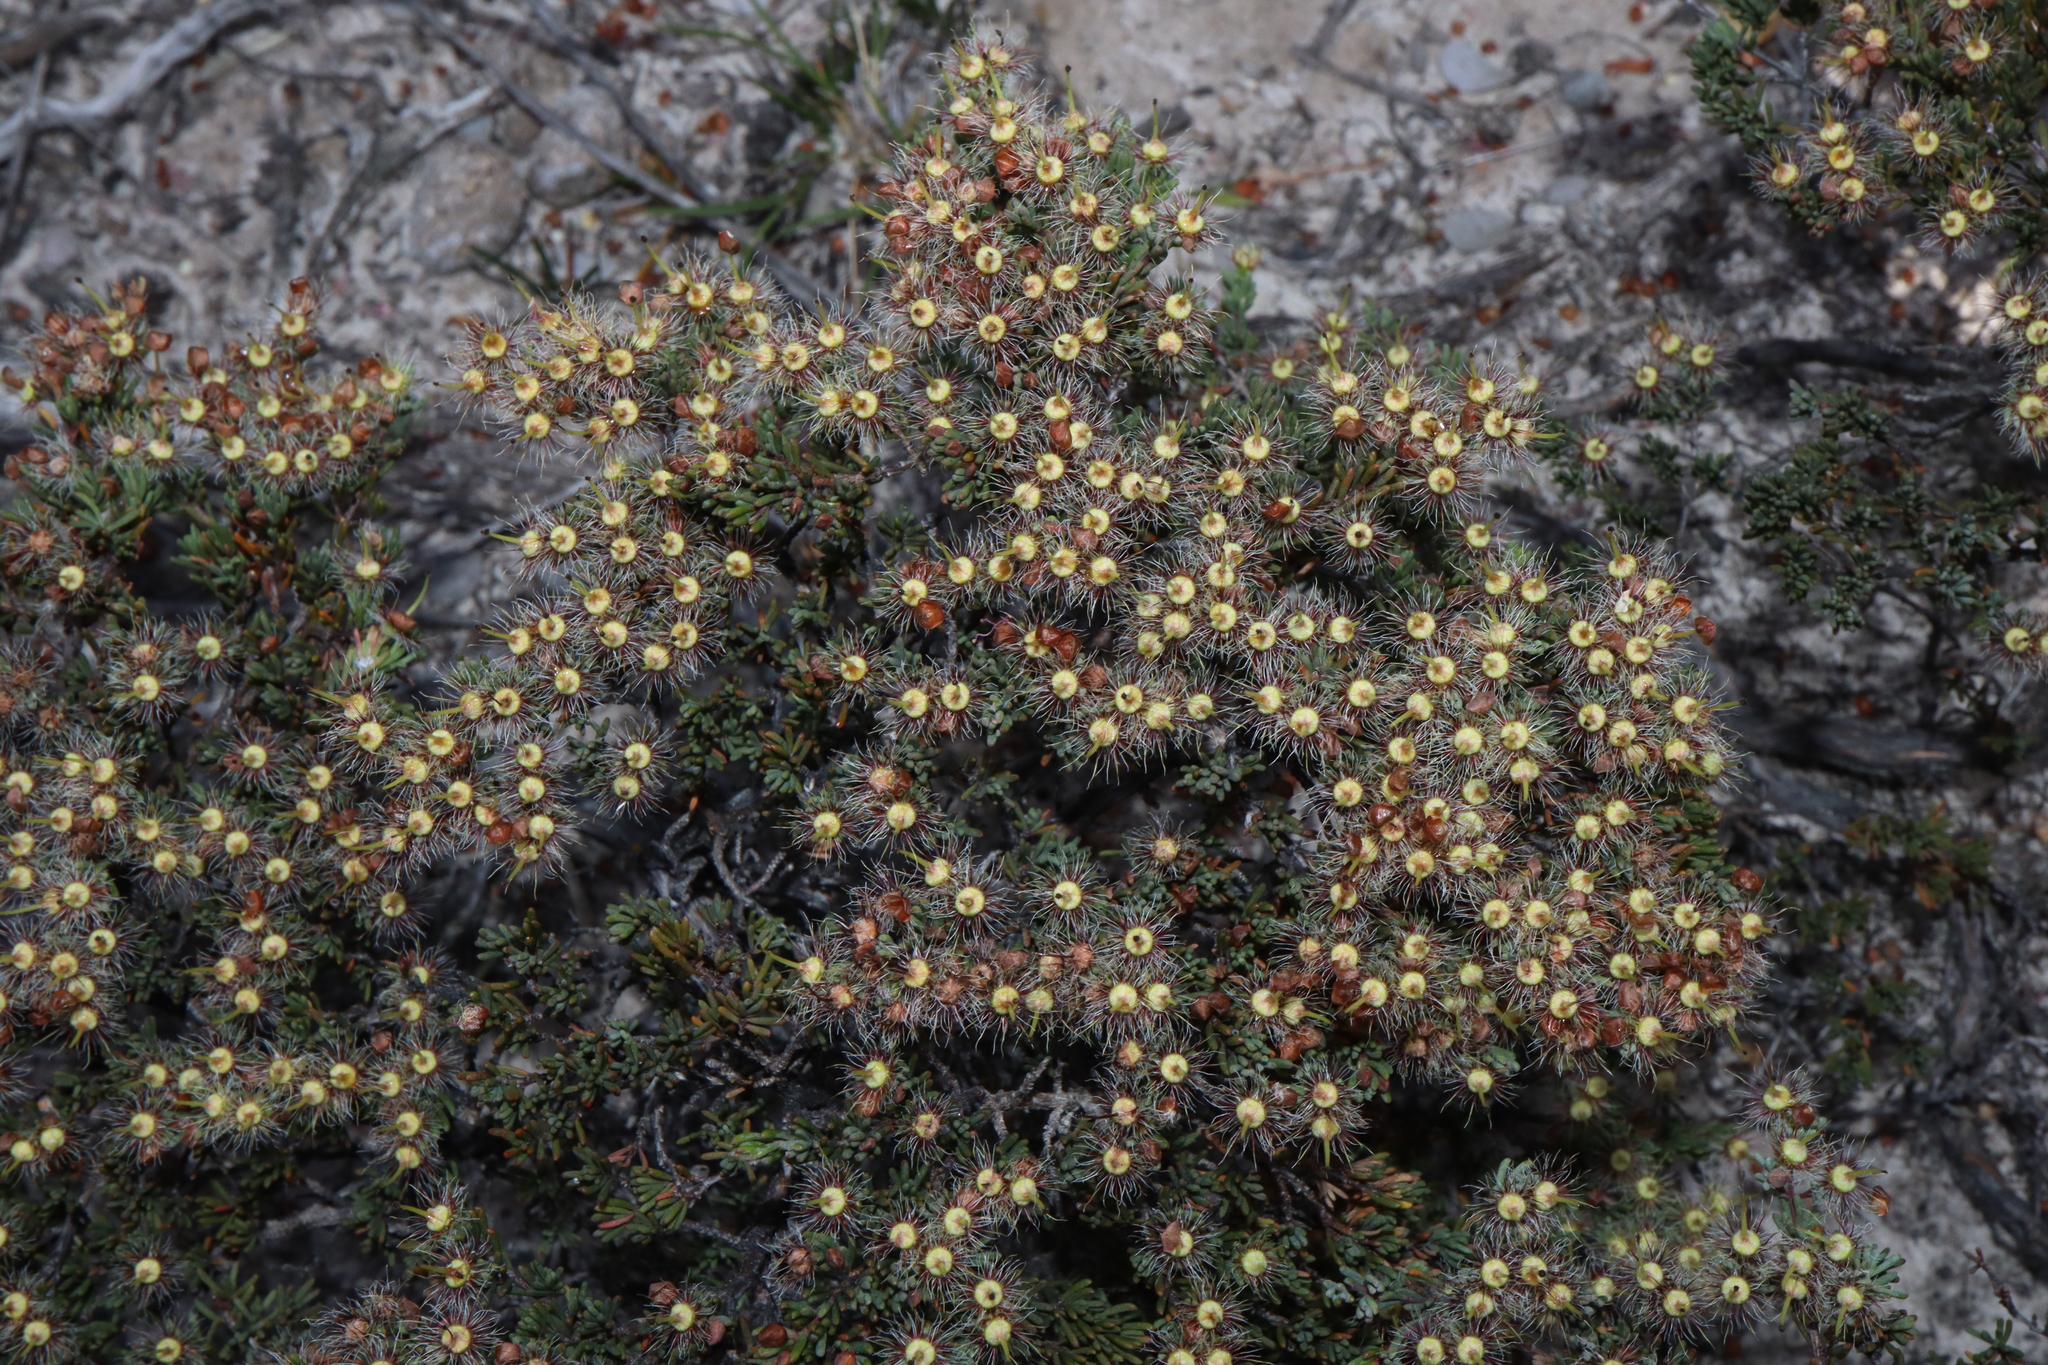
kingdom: Plantae
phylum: Tracheophyta
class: Magnoliopsida
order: Myrtales
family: Myrtaceae
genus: Verticordia
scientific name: Verticordia oxylepis
